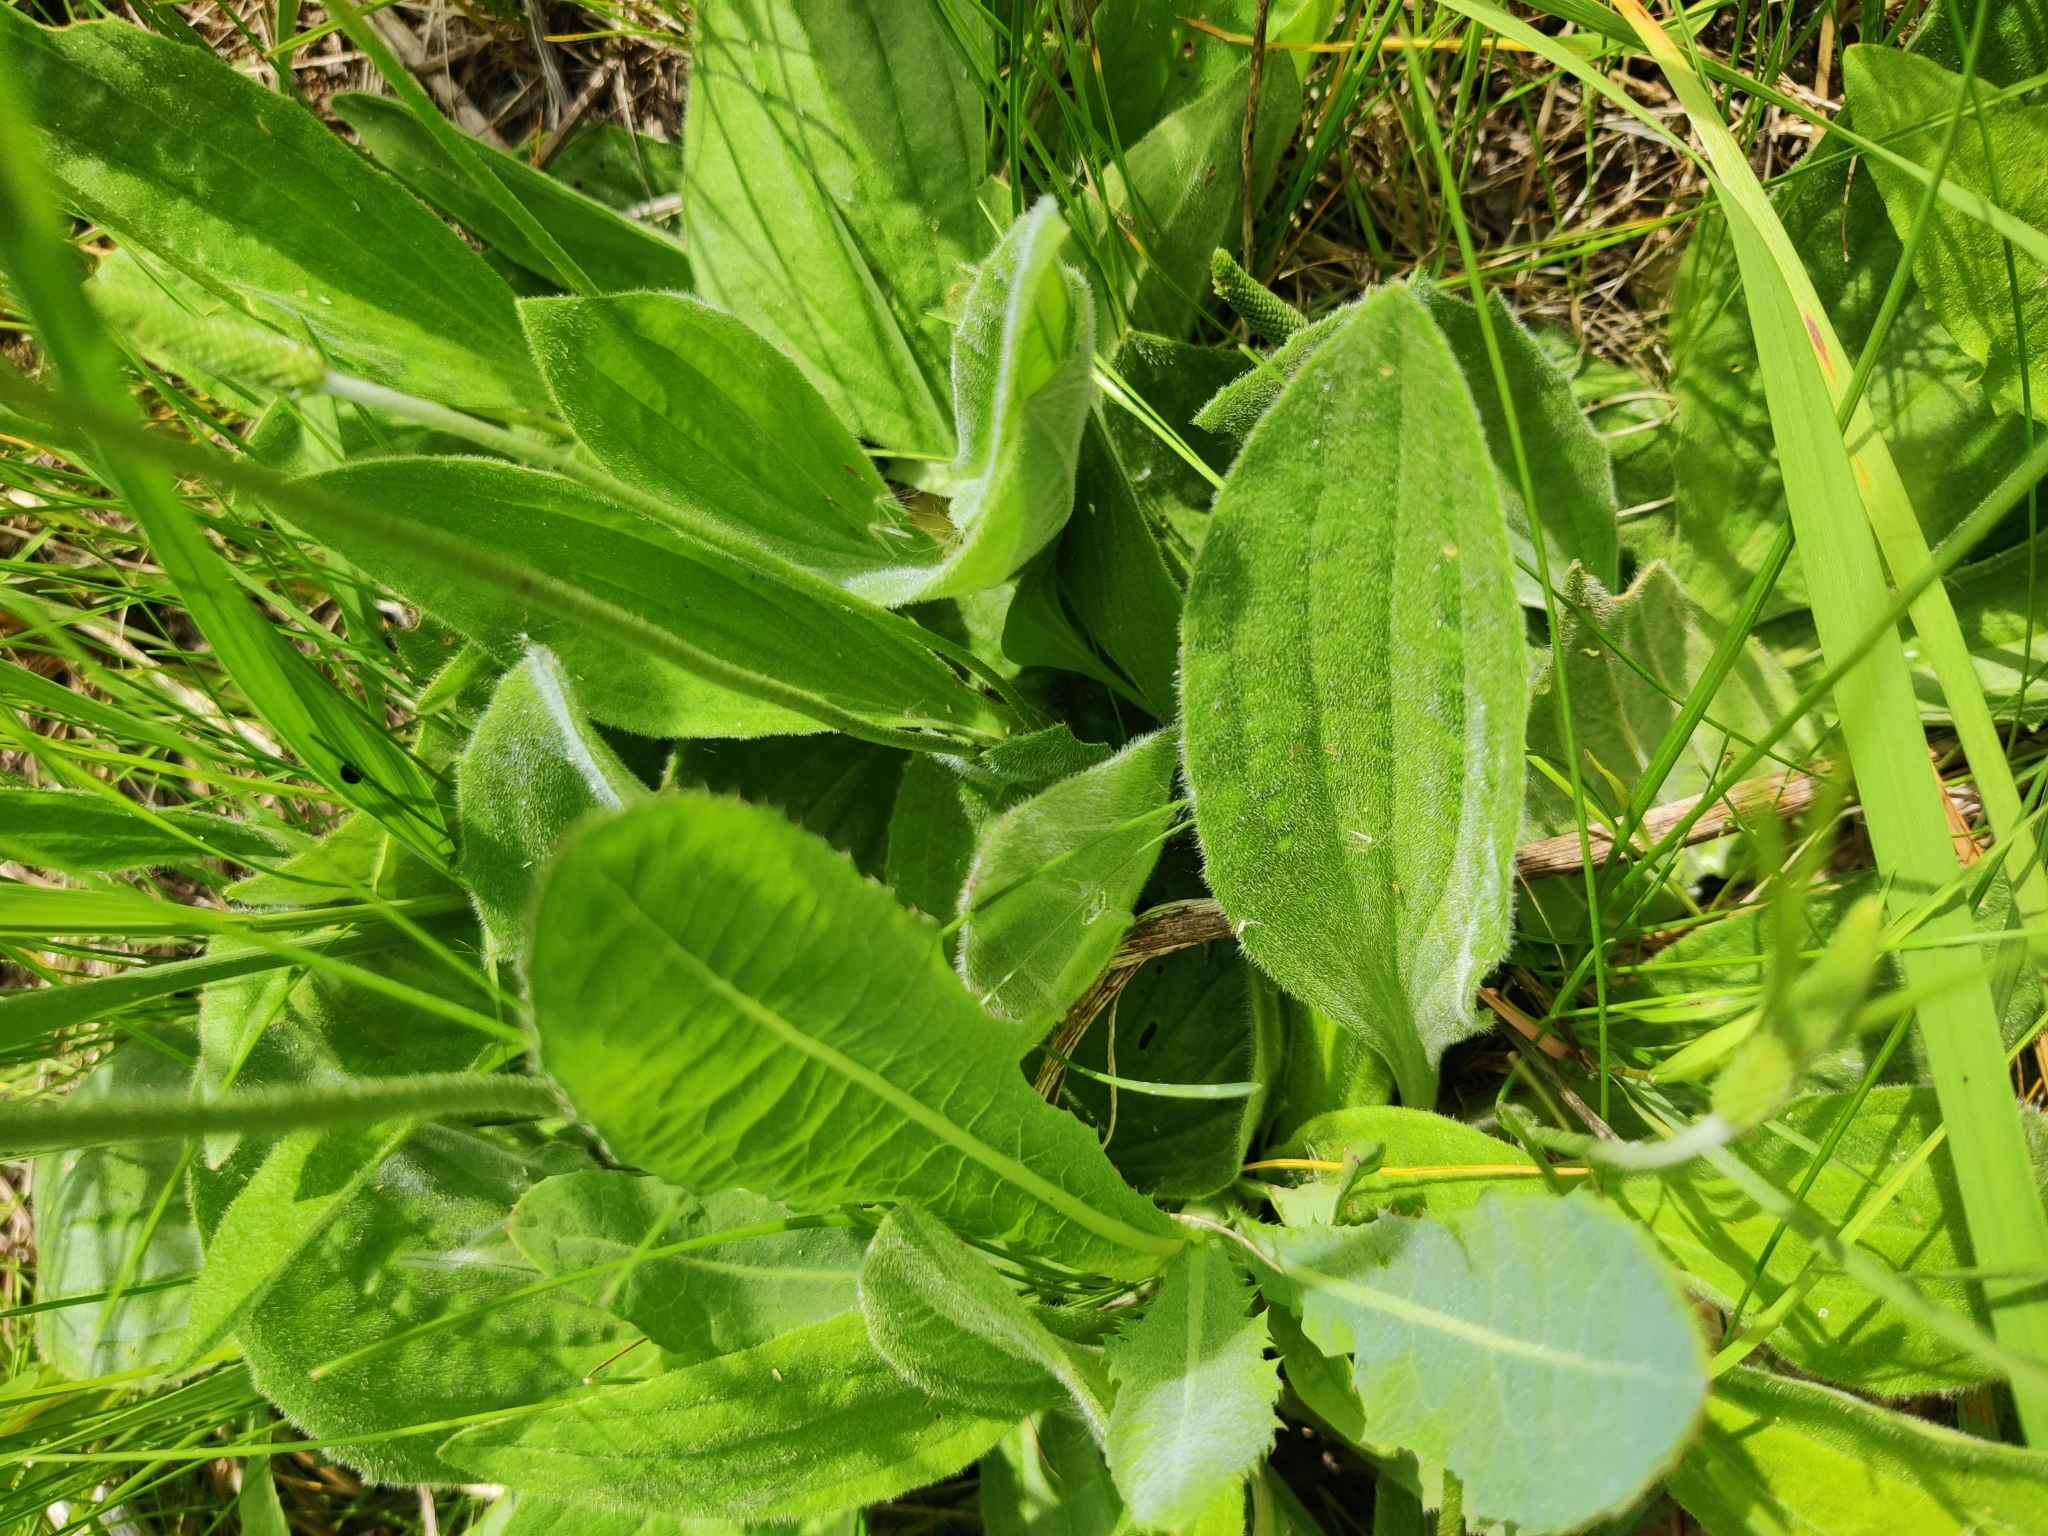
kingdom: Plantae
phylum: Tracheophyta
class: Magnoliopsida
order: Lamiales
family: Plantaginaceae
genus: Plantago
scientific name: Plantago urvillei
